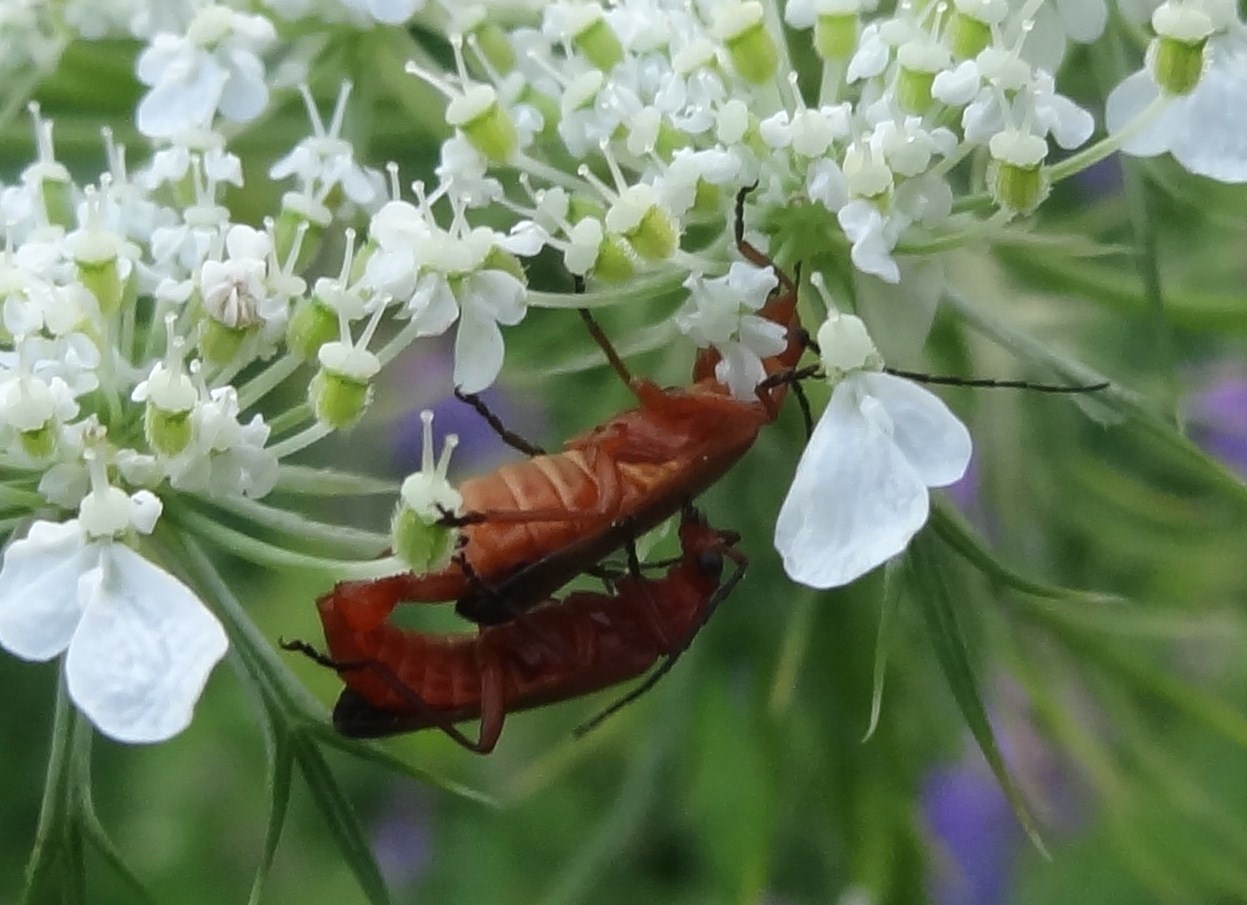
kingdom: Animalia
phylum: Arthropoda
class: Insecta
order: Coleoptera
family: Cantharidae
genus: Rhagonycha
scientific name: Rhagonycha fulva
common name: Common red soldier beetle
